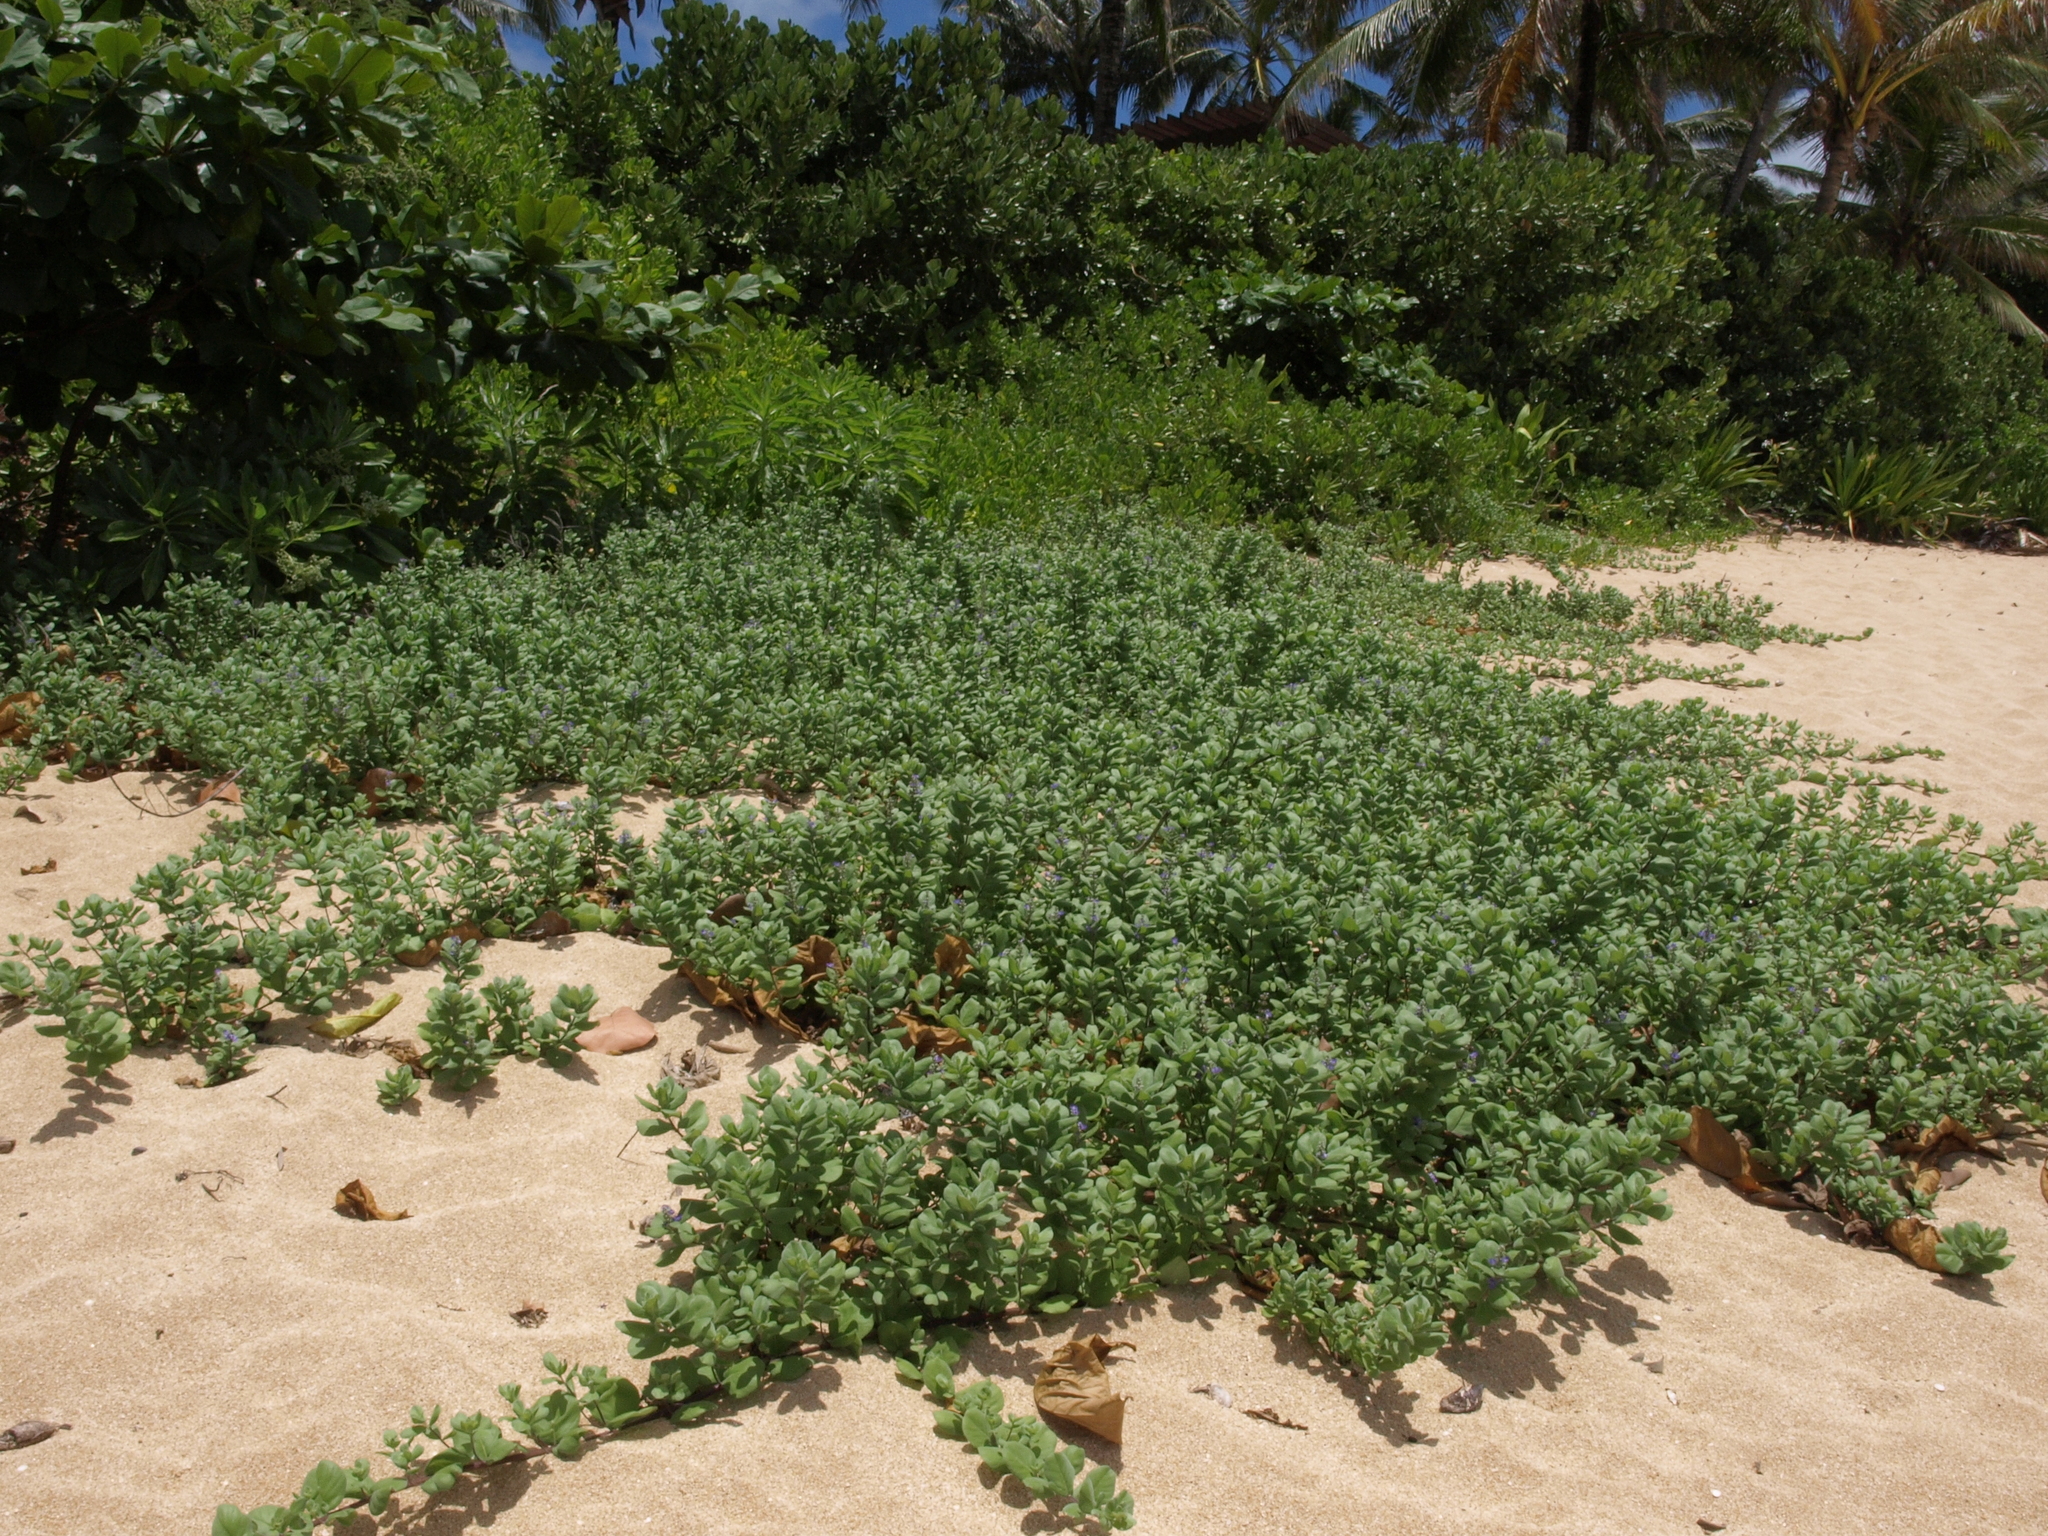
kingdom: Plantae
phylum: Tracheophyta
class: Magnoliopsida
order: Lamiales
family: Lamiaceae
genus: Vitex
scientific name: Vitex rotundifolia
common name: Beach vitex
